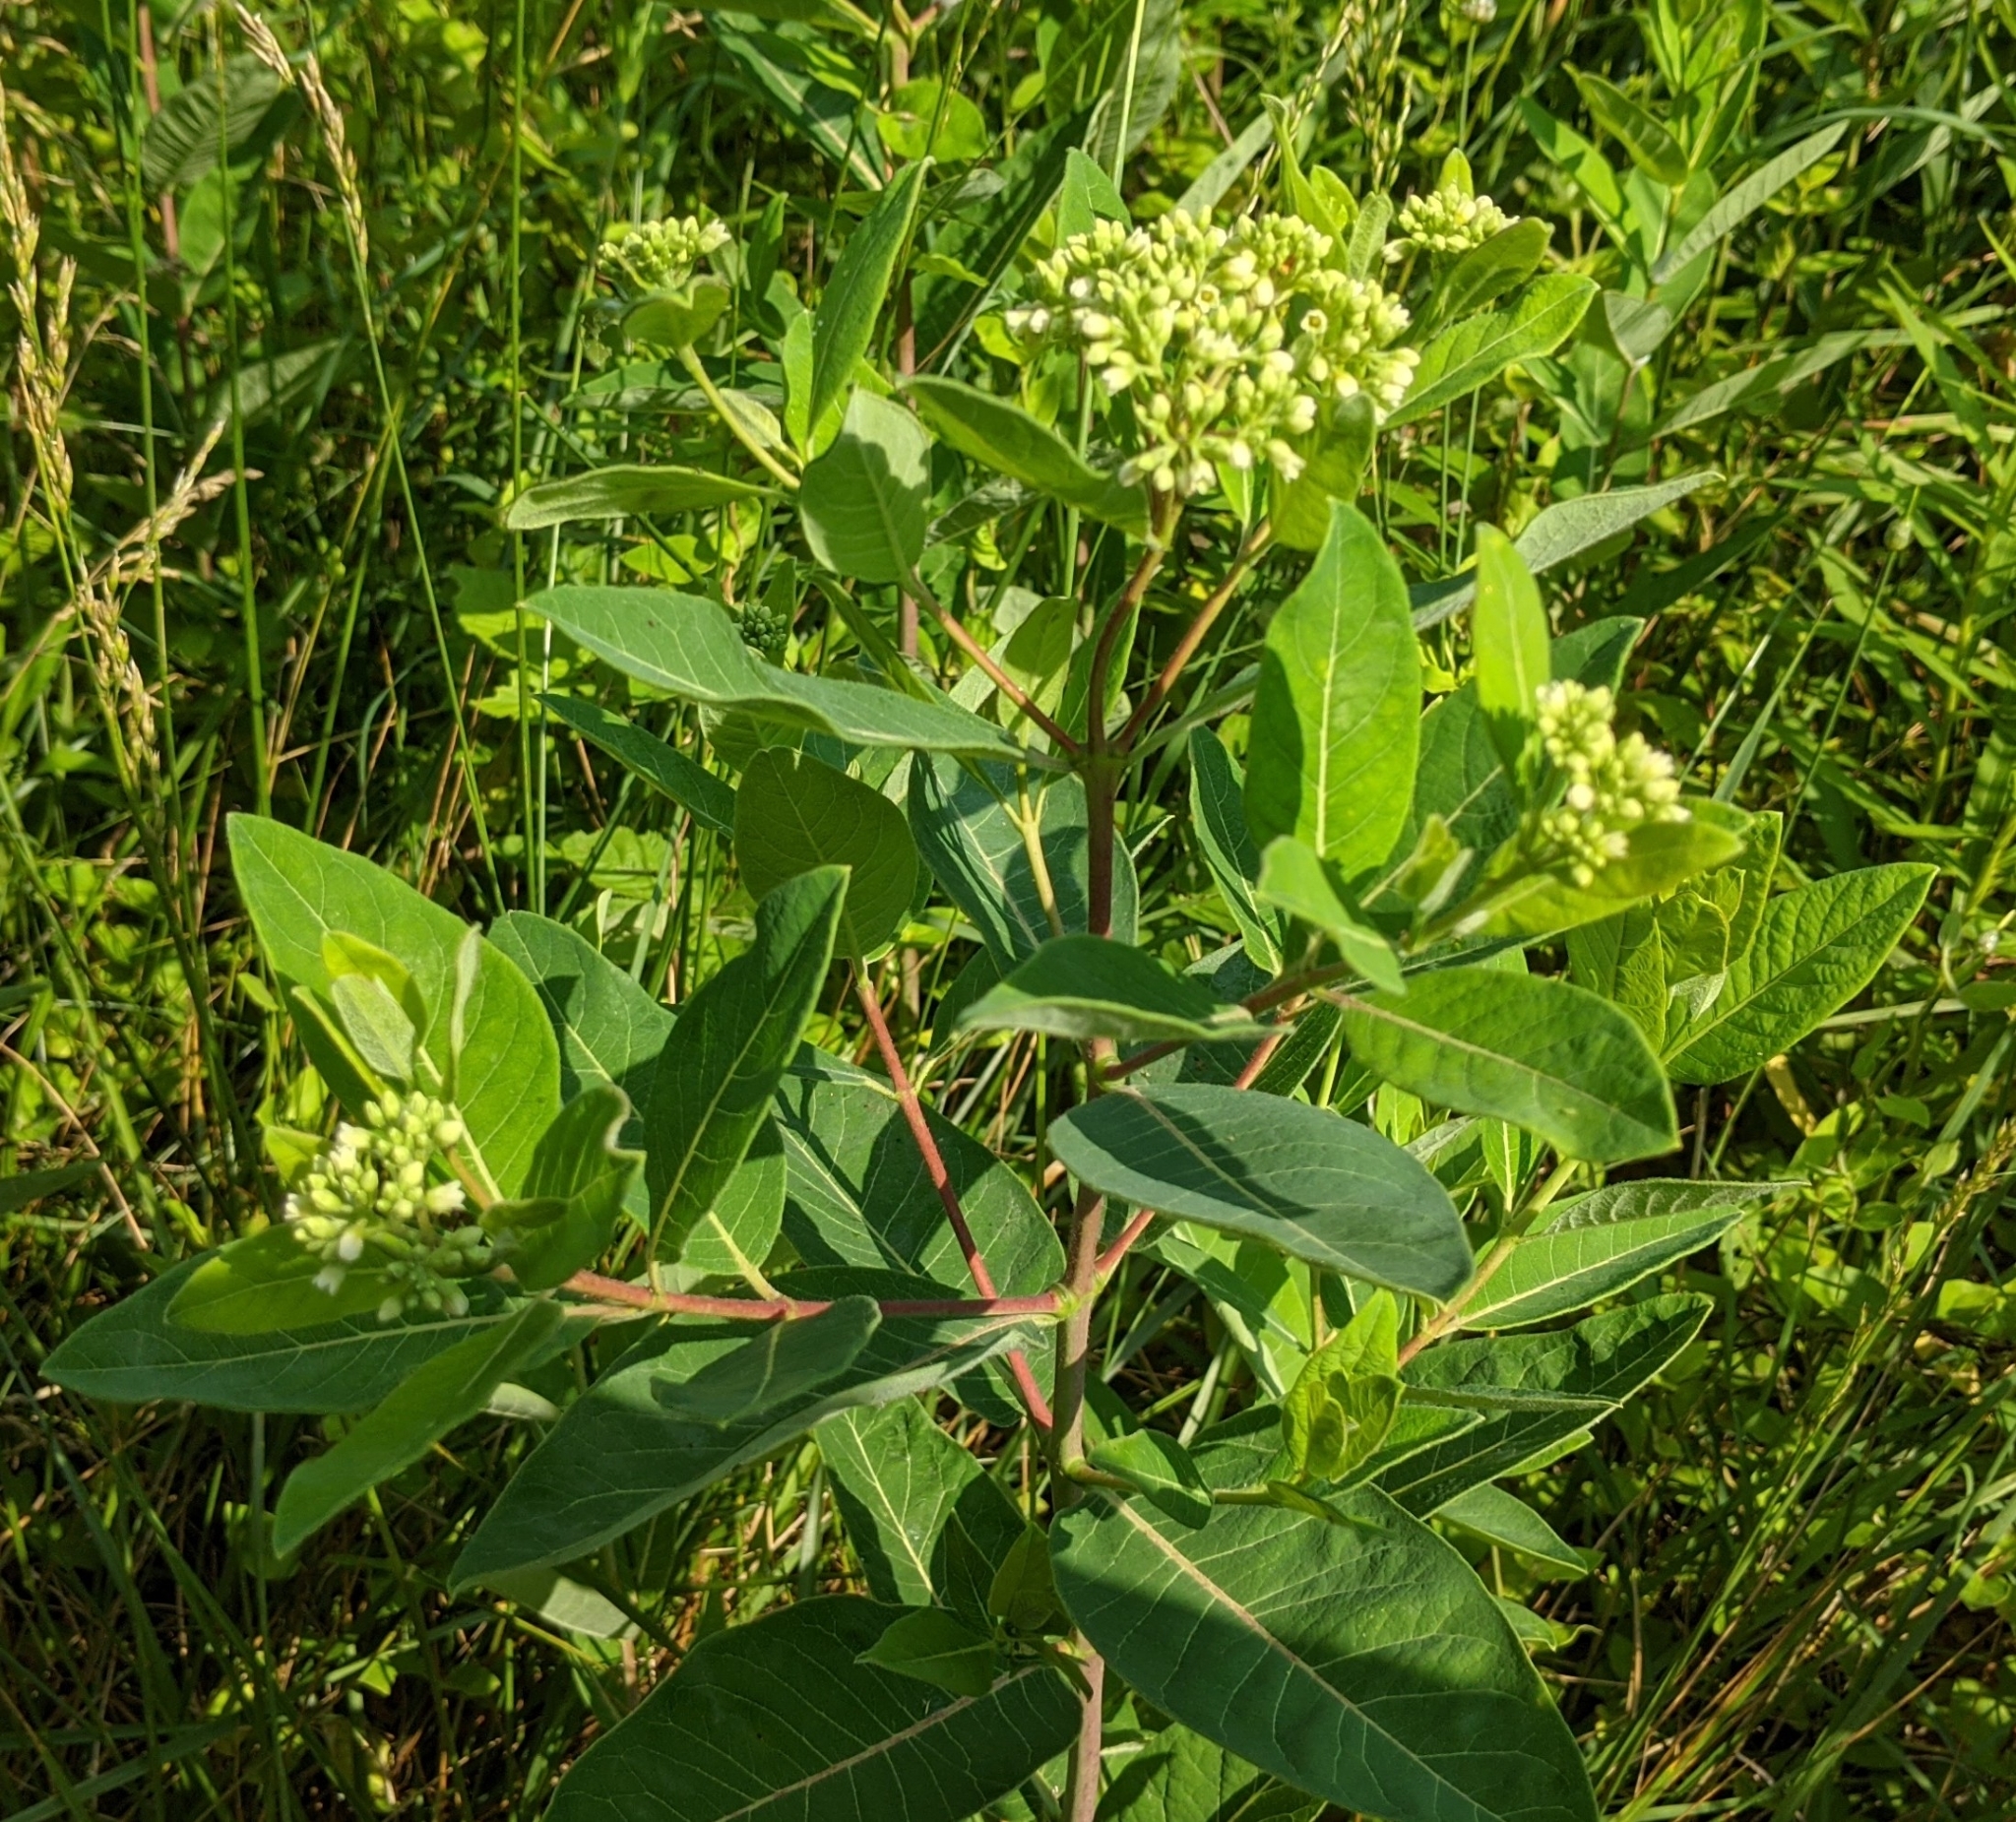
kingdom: Plantae
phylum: Tracheophyta
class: Magnoliopsida
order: Gentianales
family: Apocynaceae
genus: Apocynum
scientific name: Apocynum cannabinum
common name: Hemp dogbane
